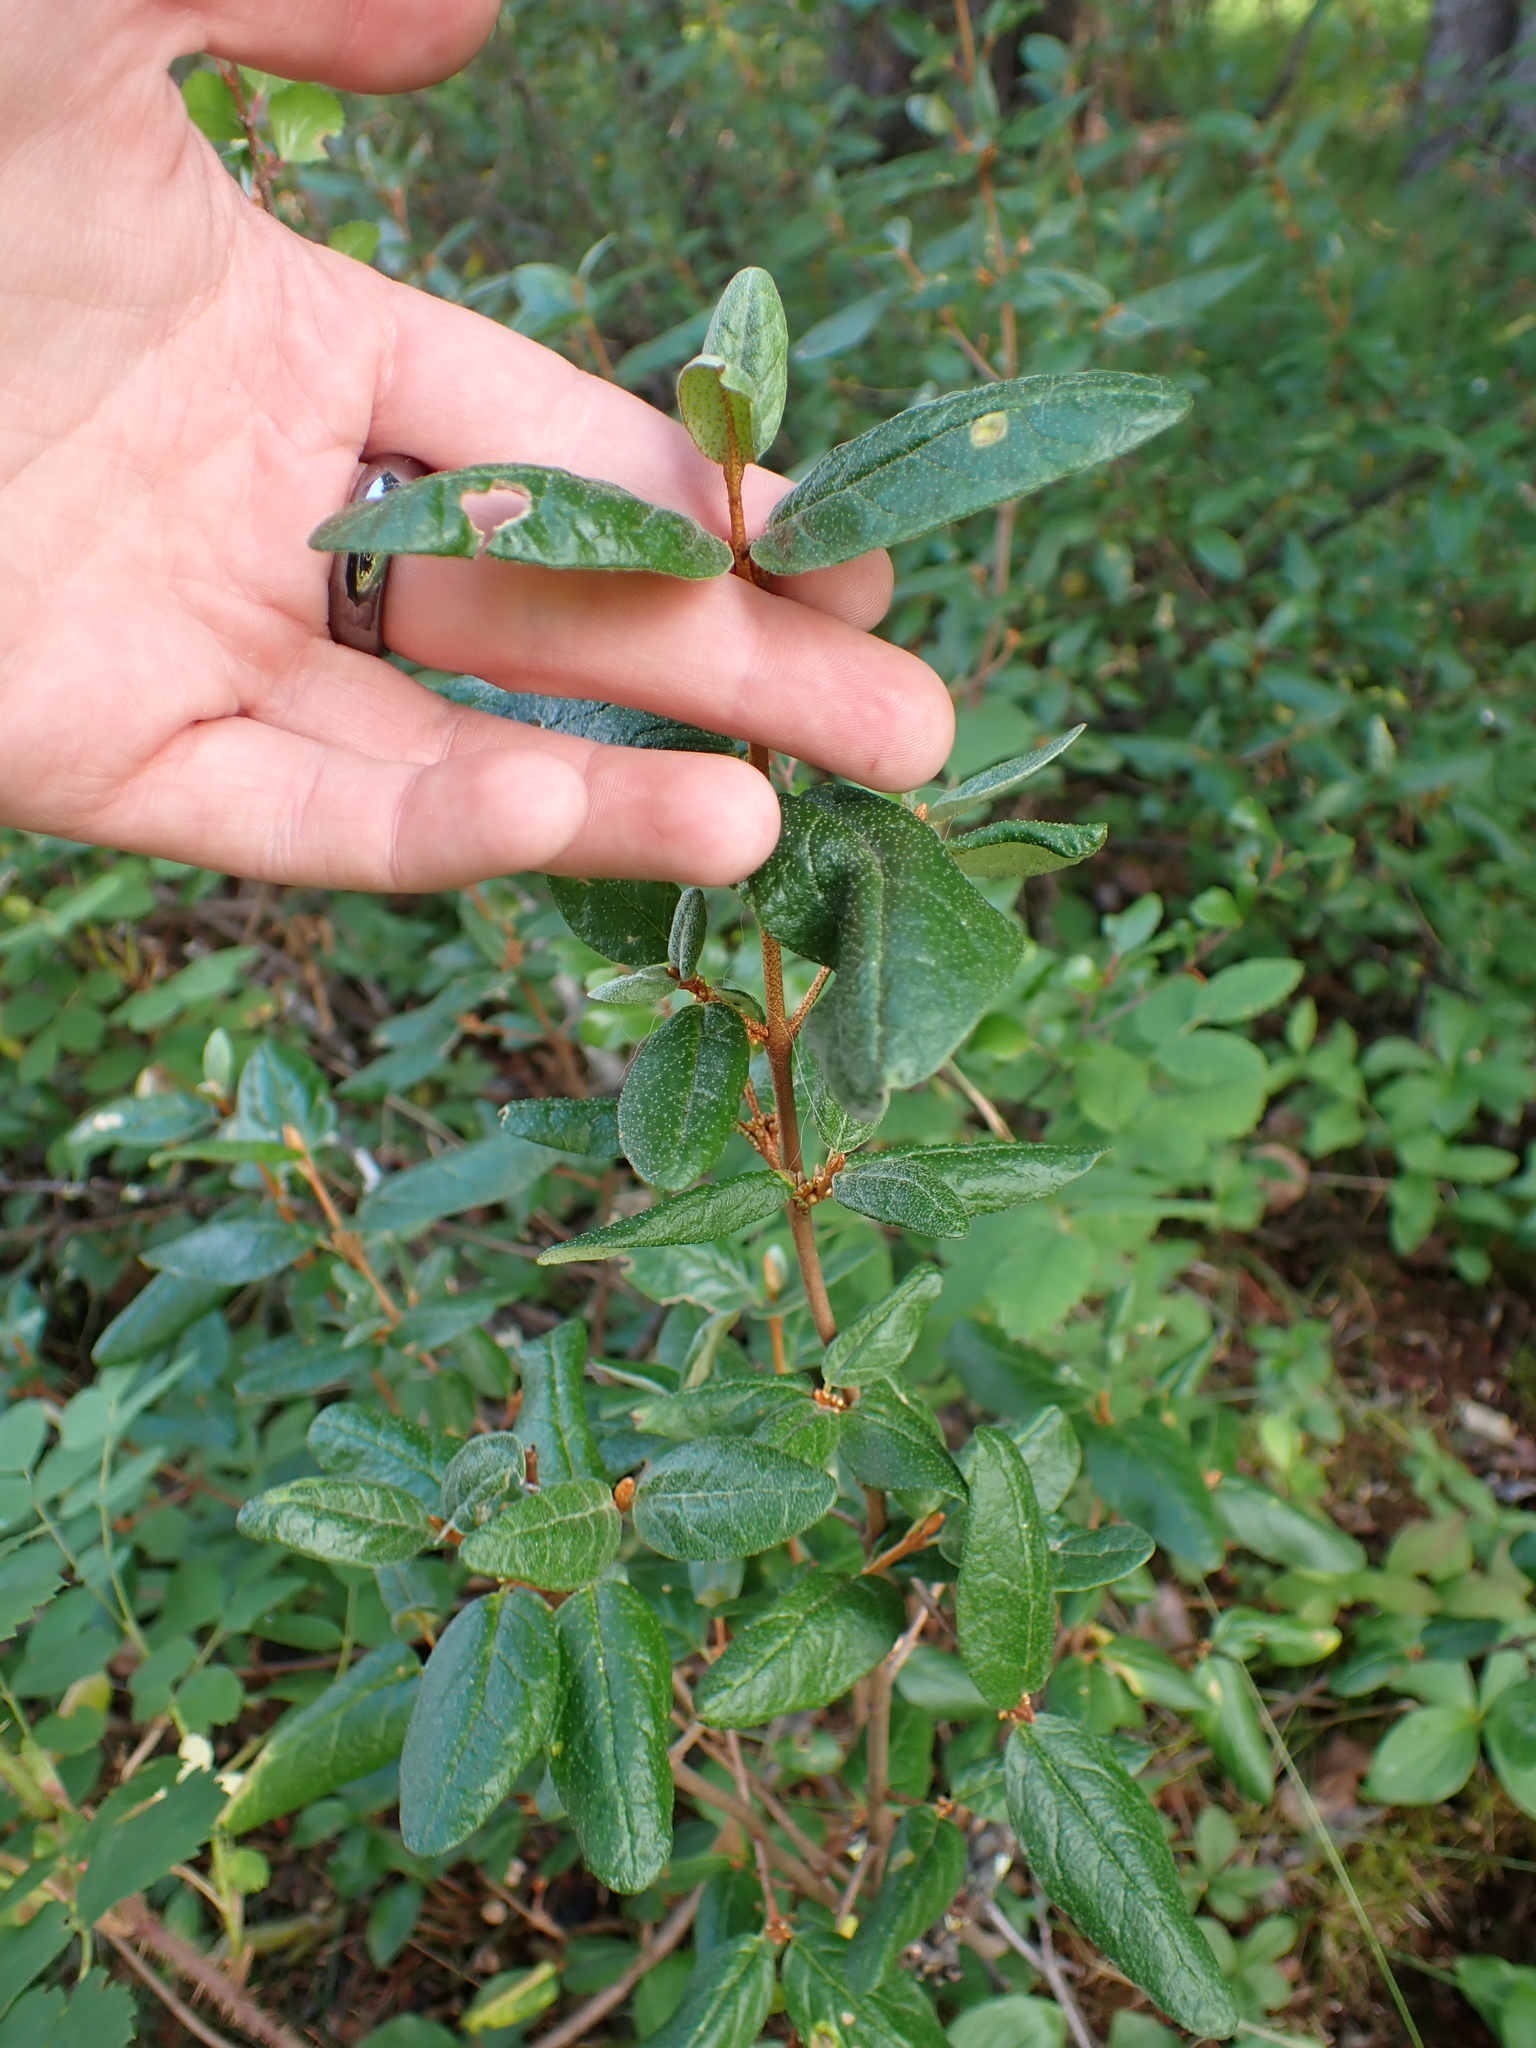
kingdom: Plantae
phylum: Tracheophyta
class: Magnoliopsida
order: Rosales
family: Elaeagnaceae
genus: Shepherdia
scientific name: Shepherdia canadensis
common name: Soapberry
